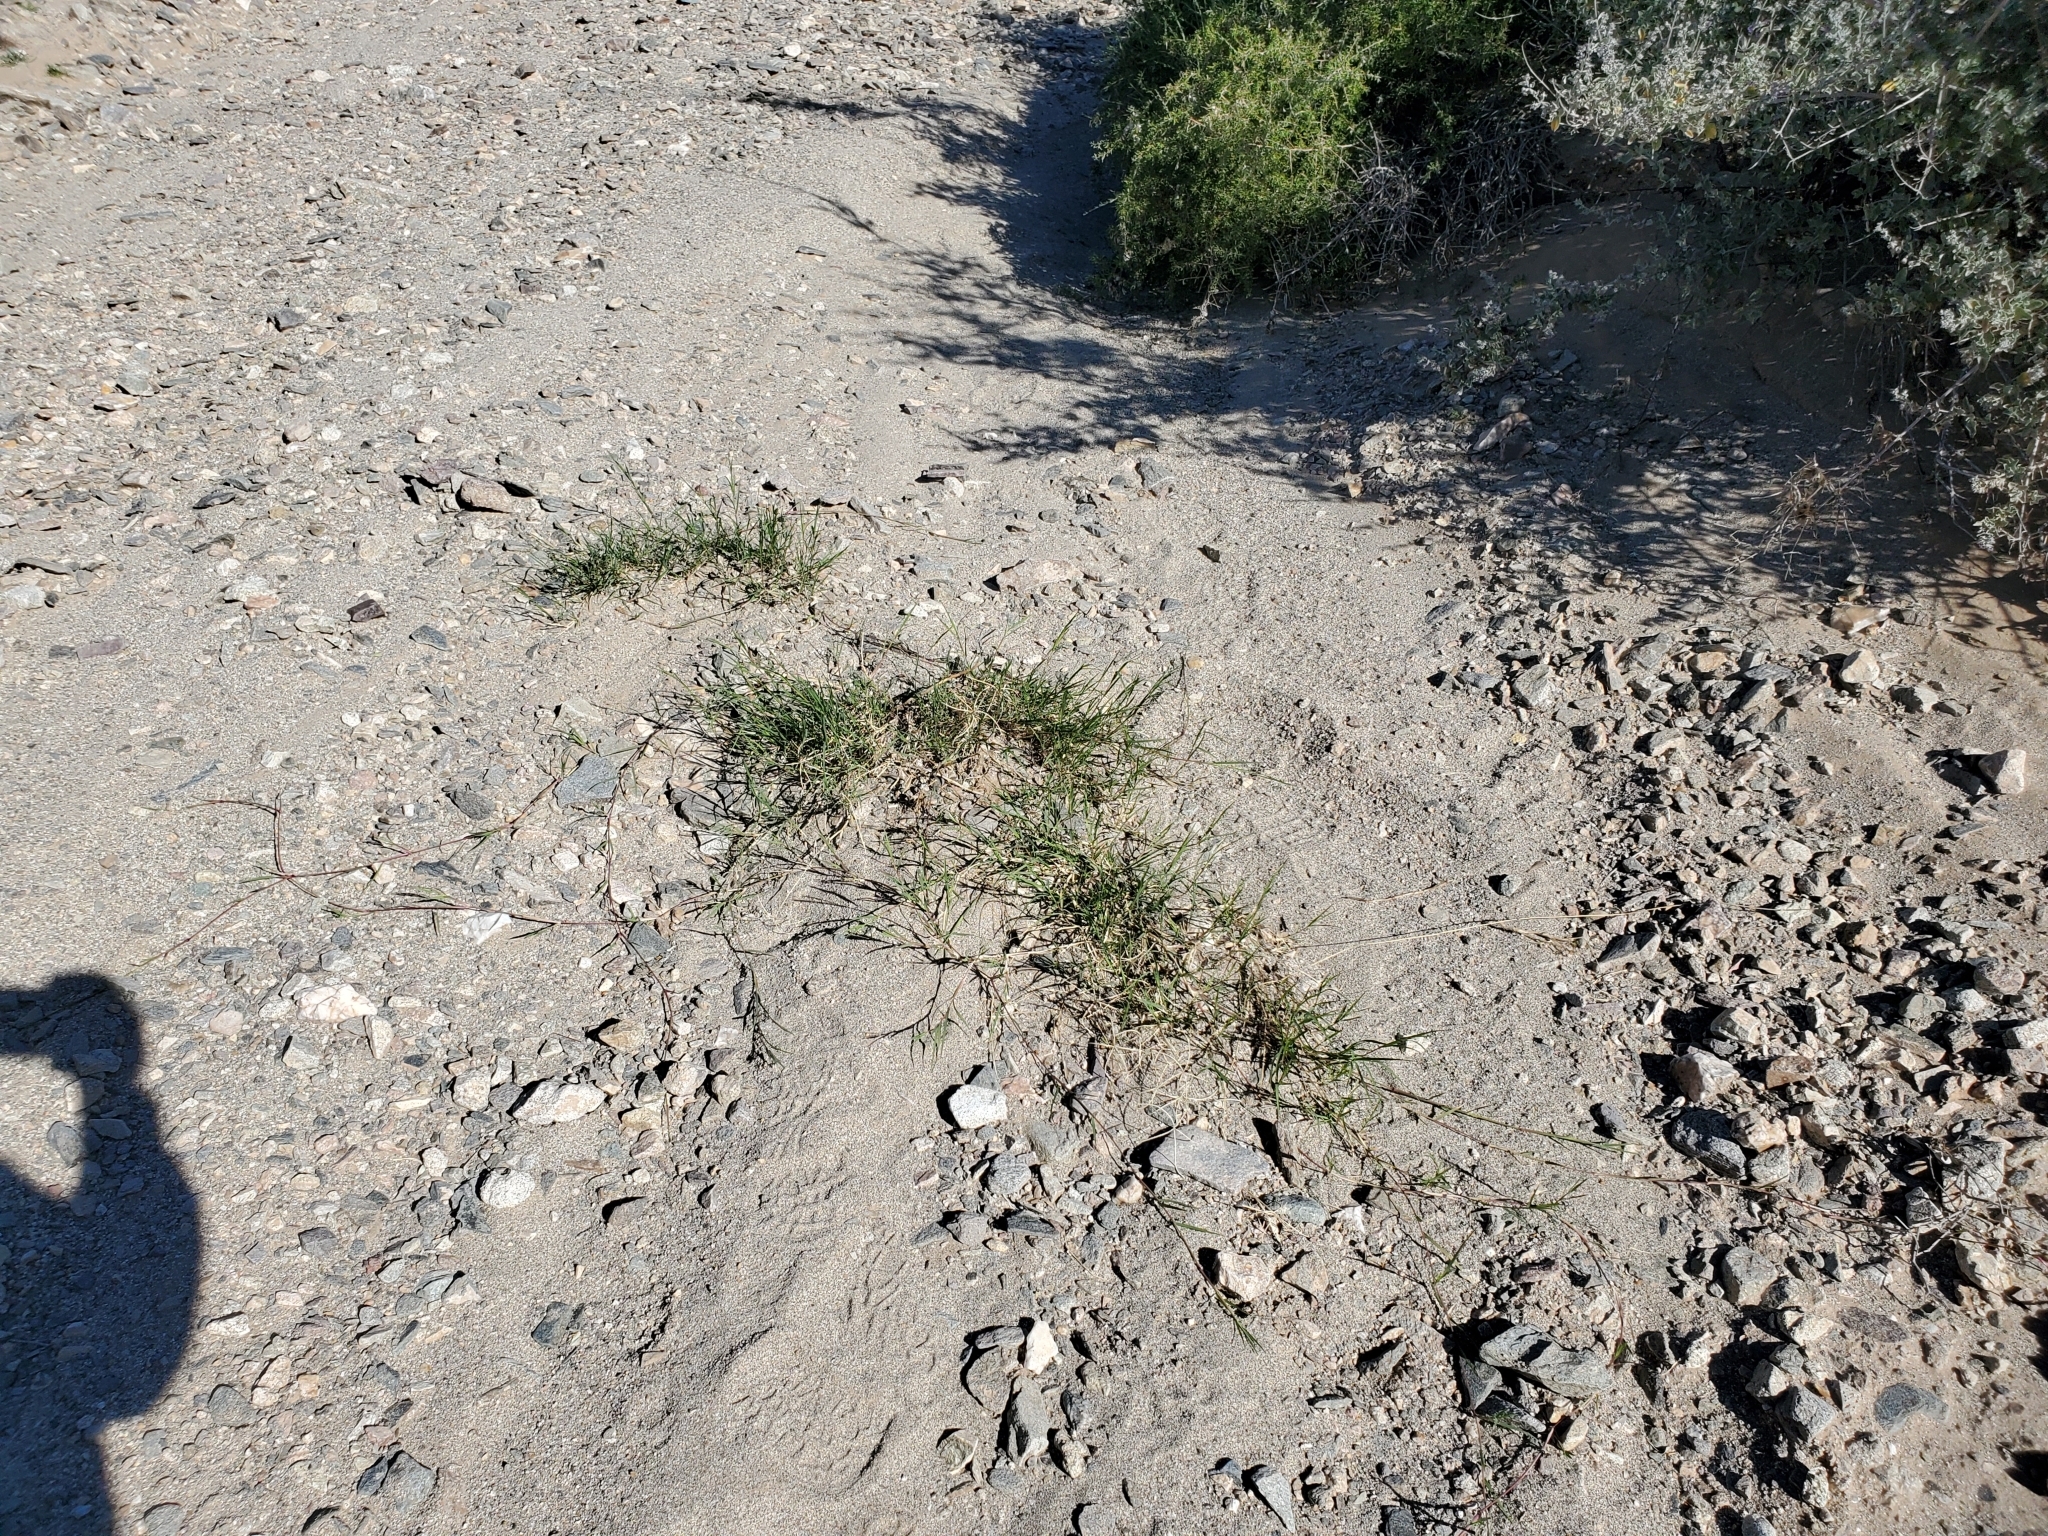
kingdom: Plantae
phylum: Tracheophyta
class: Liliopsida
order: Poales
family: Poaceae
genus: Cynodon
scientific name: Cynodon dactylon
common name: Bermuda grass
